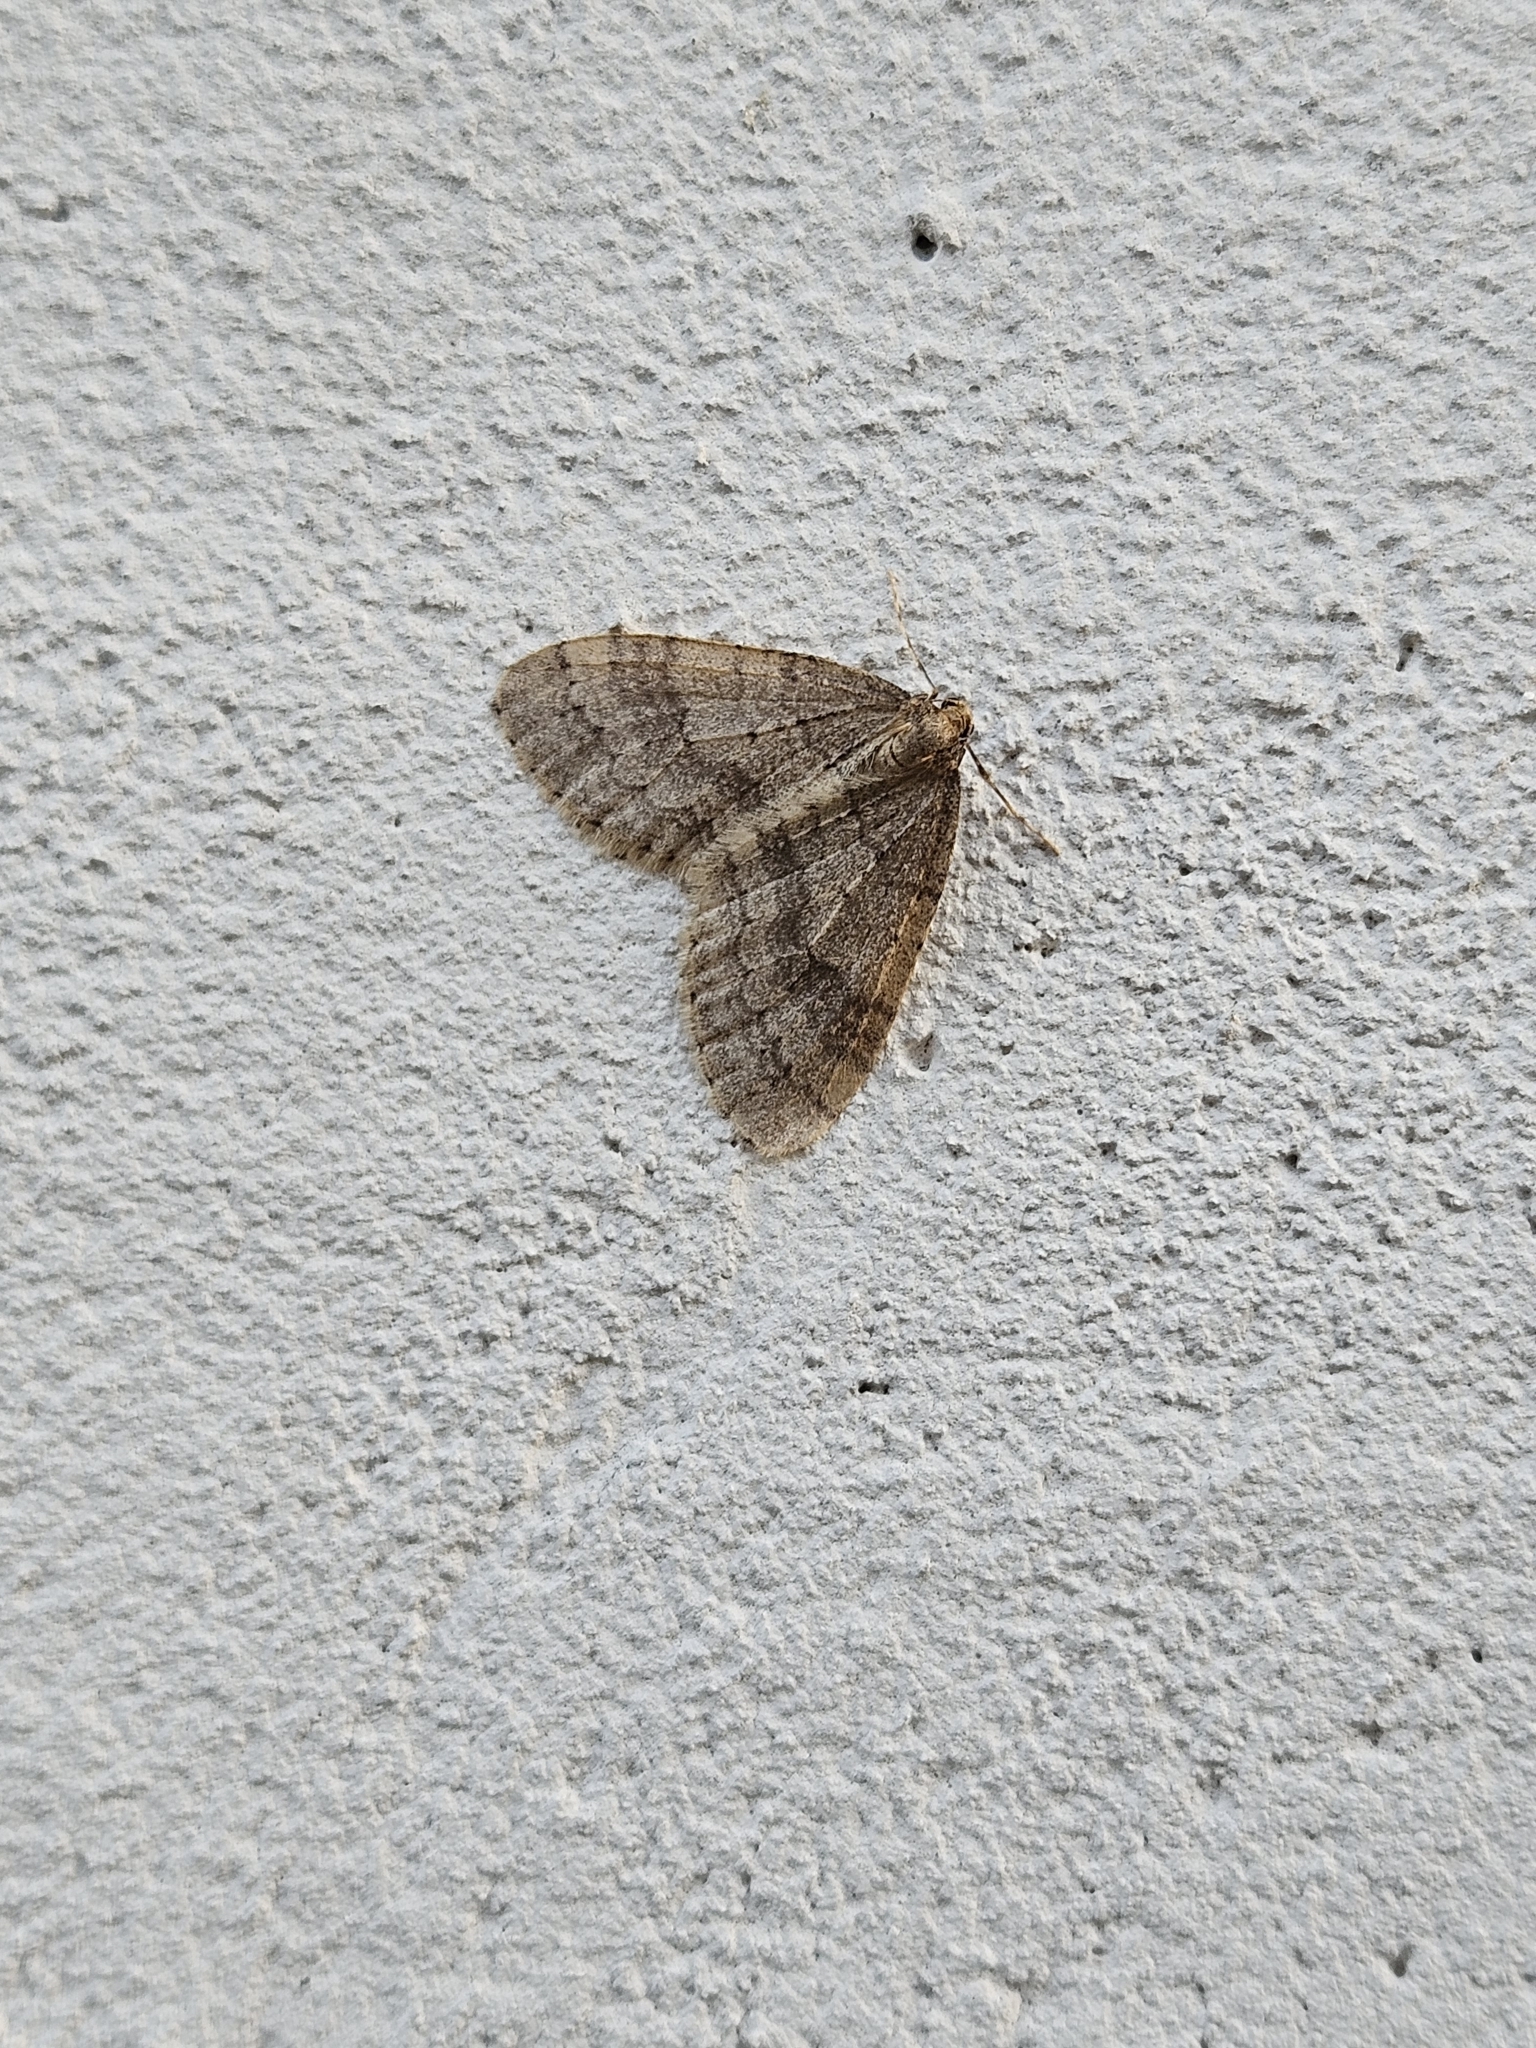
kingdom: Animalia
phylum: Arthropoda
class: Insecta
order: Lepidoptera
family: Geometridae
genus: Operophtera
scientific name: Operophtera brumata
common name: Winter moth
